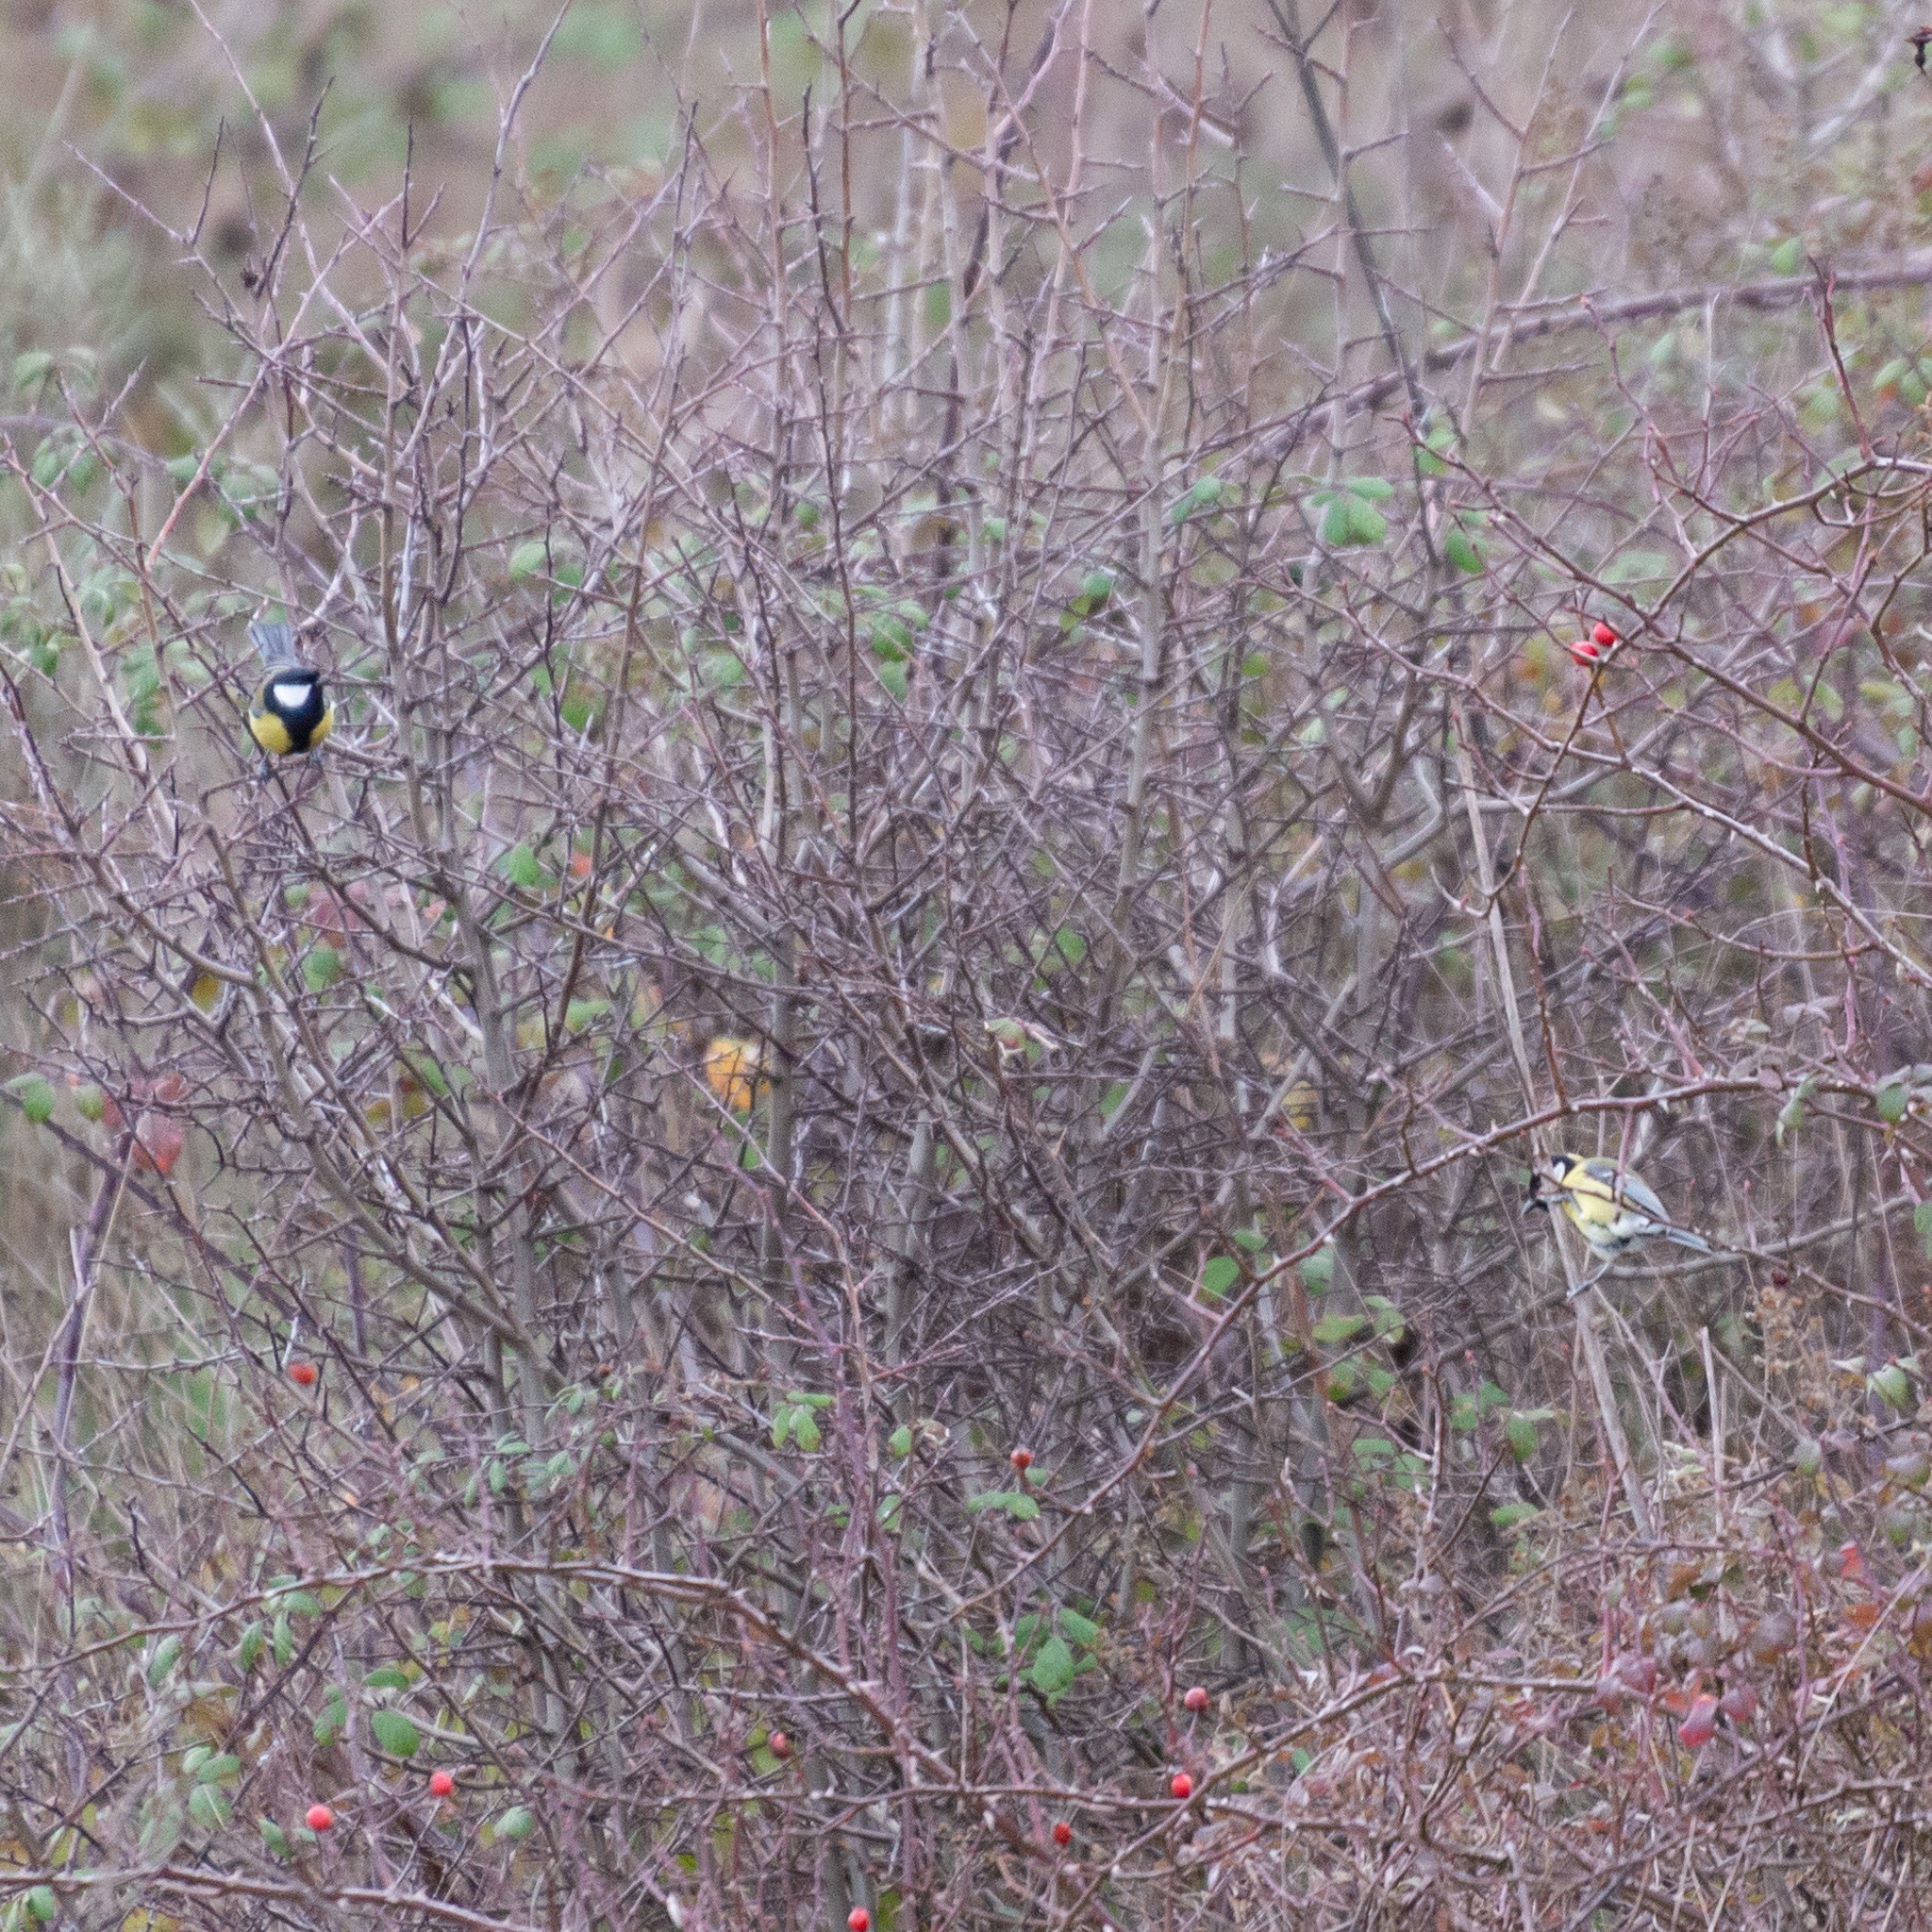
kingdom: Animalia
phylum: Chordata
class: Aves
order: Passeriformes
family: Paridae
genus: Parus
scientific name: Parus major
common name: Great tit
